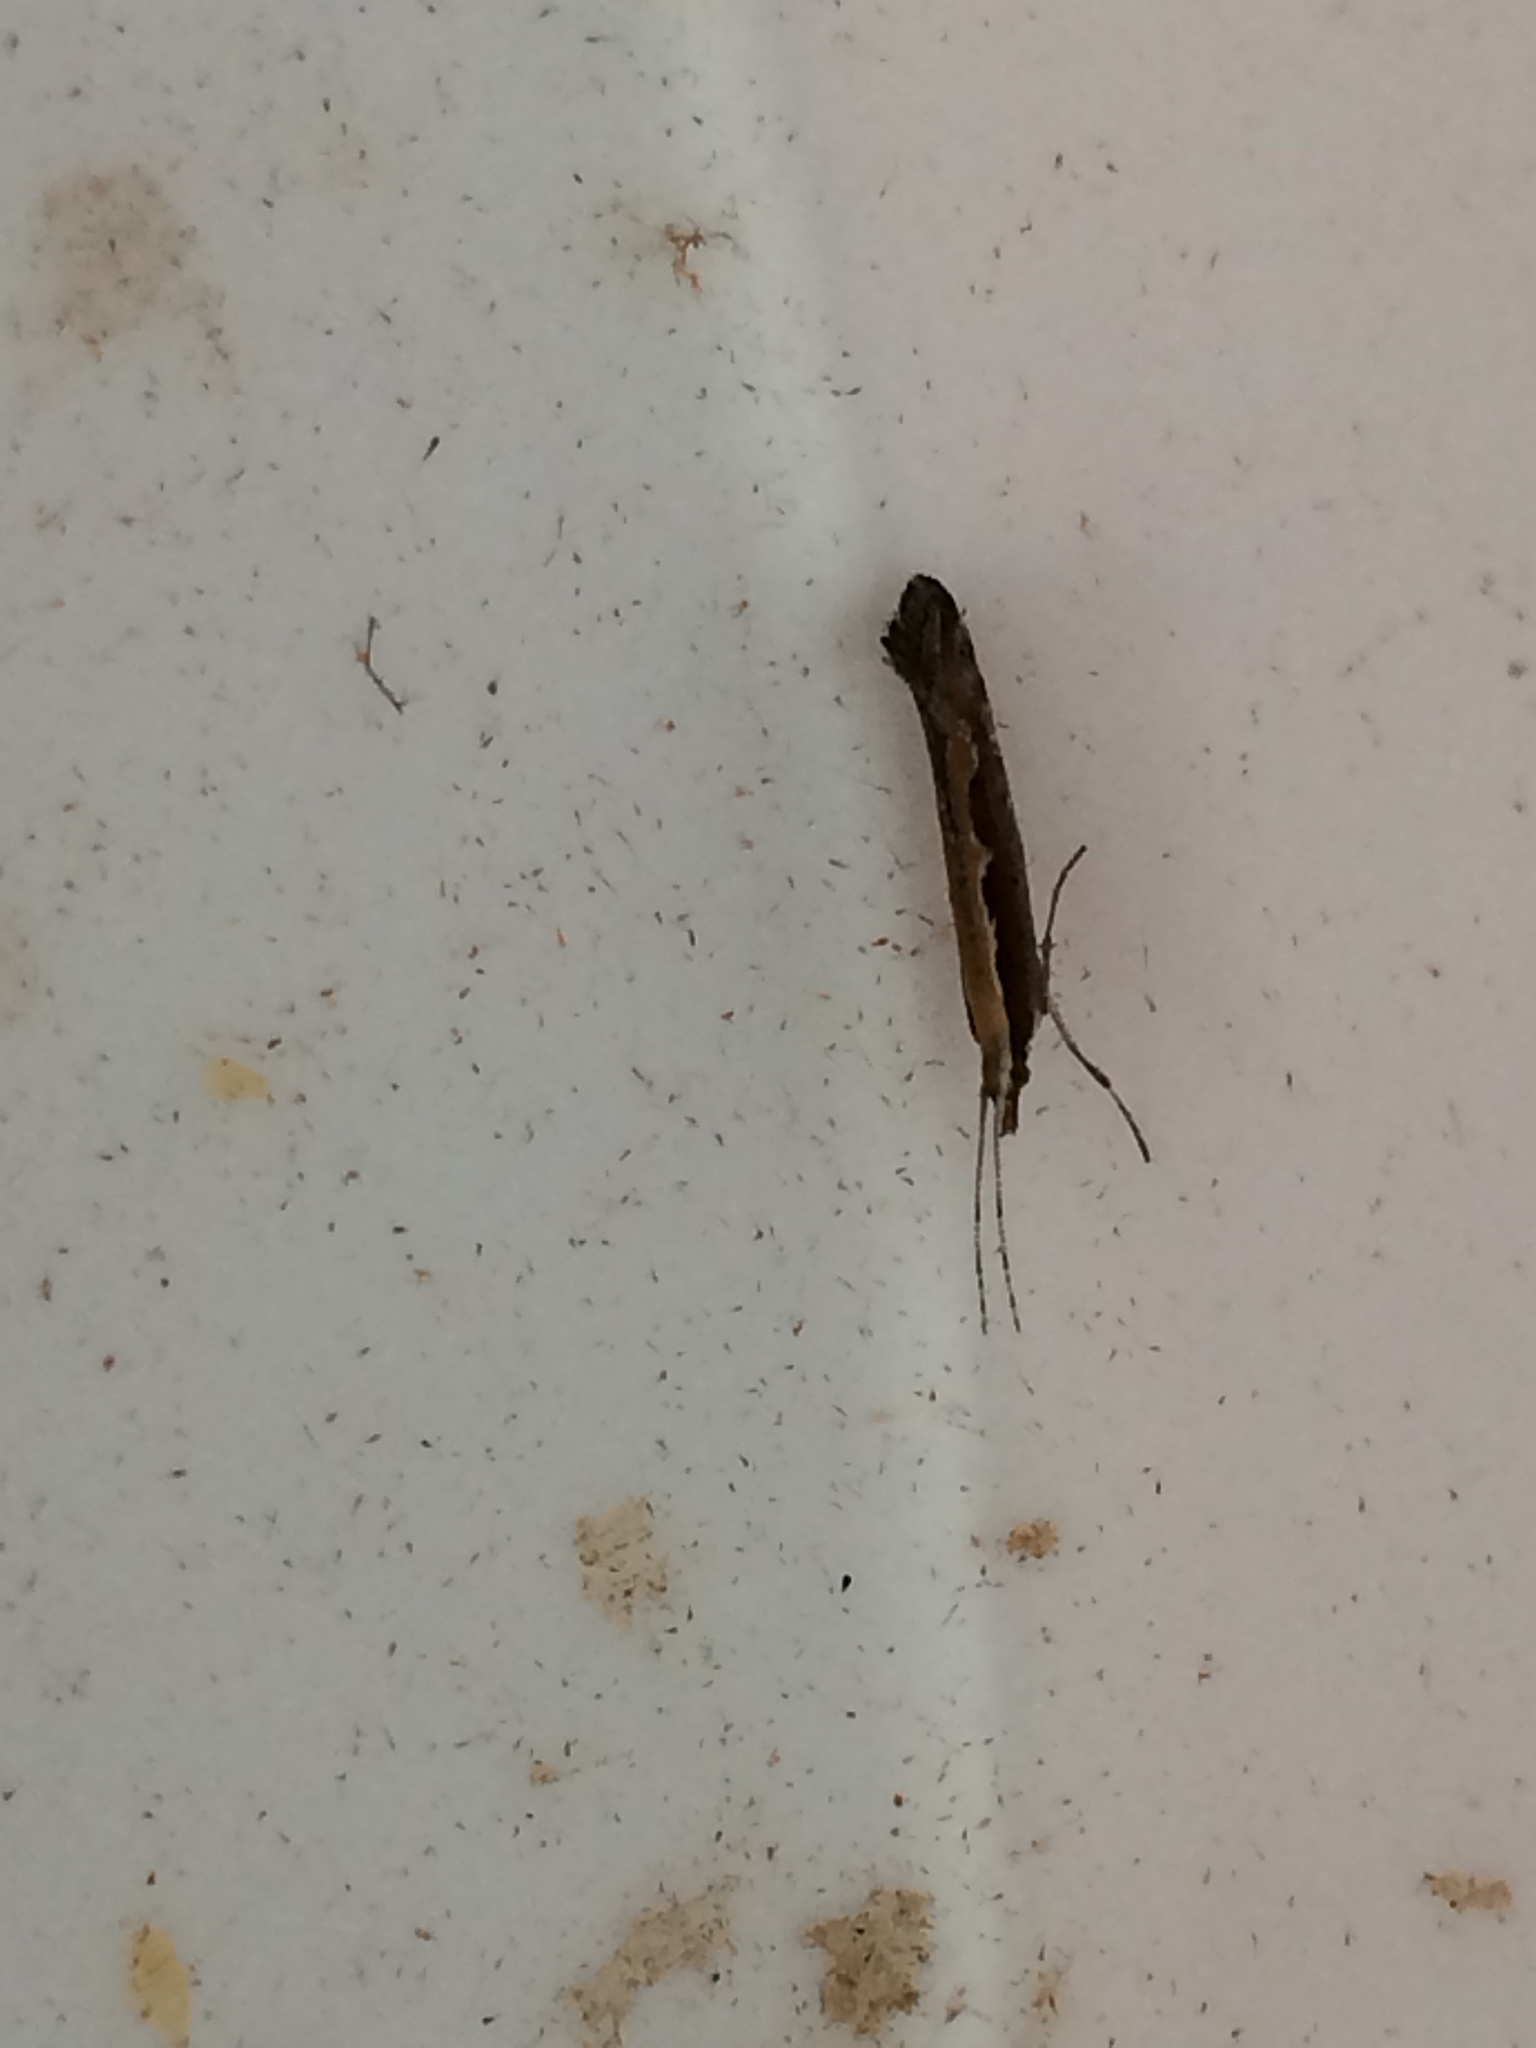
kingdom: Animalia
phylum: Arthropoda
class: Insecta
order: Lepidoptera
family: Plutellidae
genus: Plutella
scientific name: Plutella xylostella
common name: Diamond-back moth
